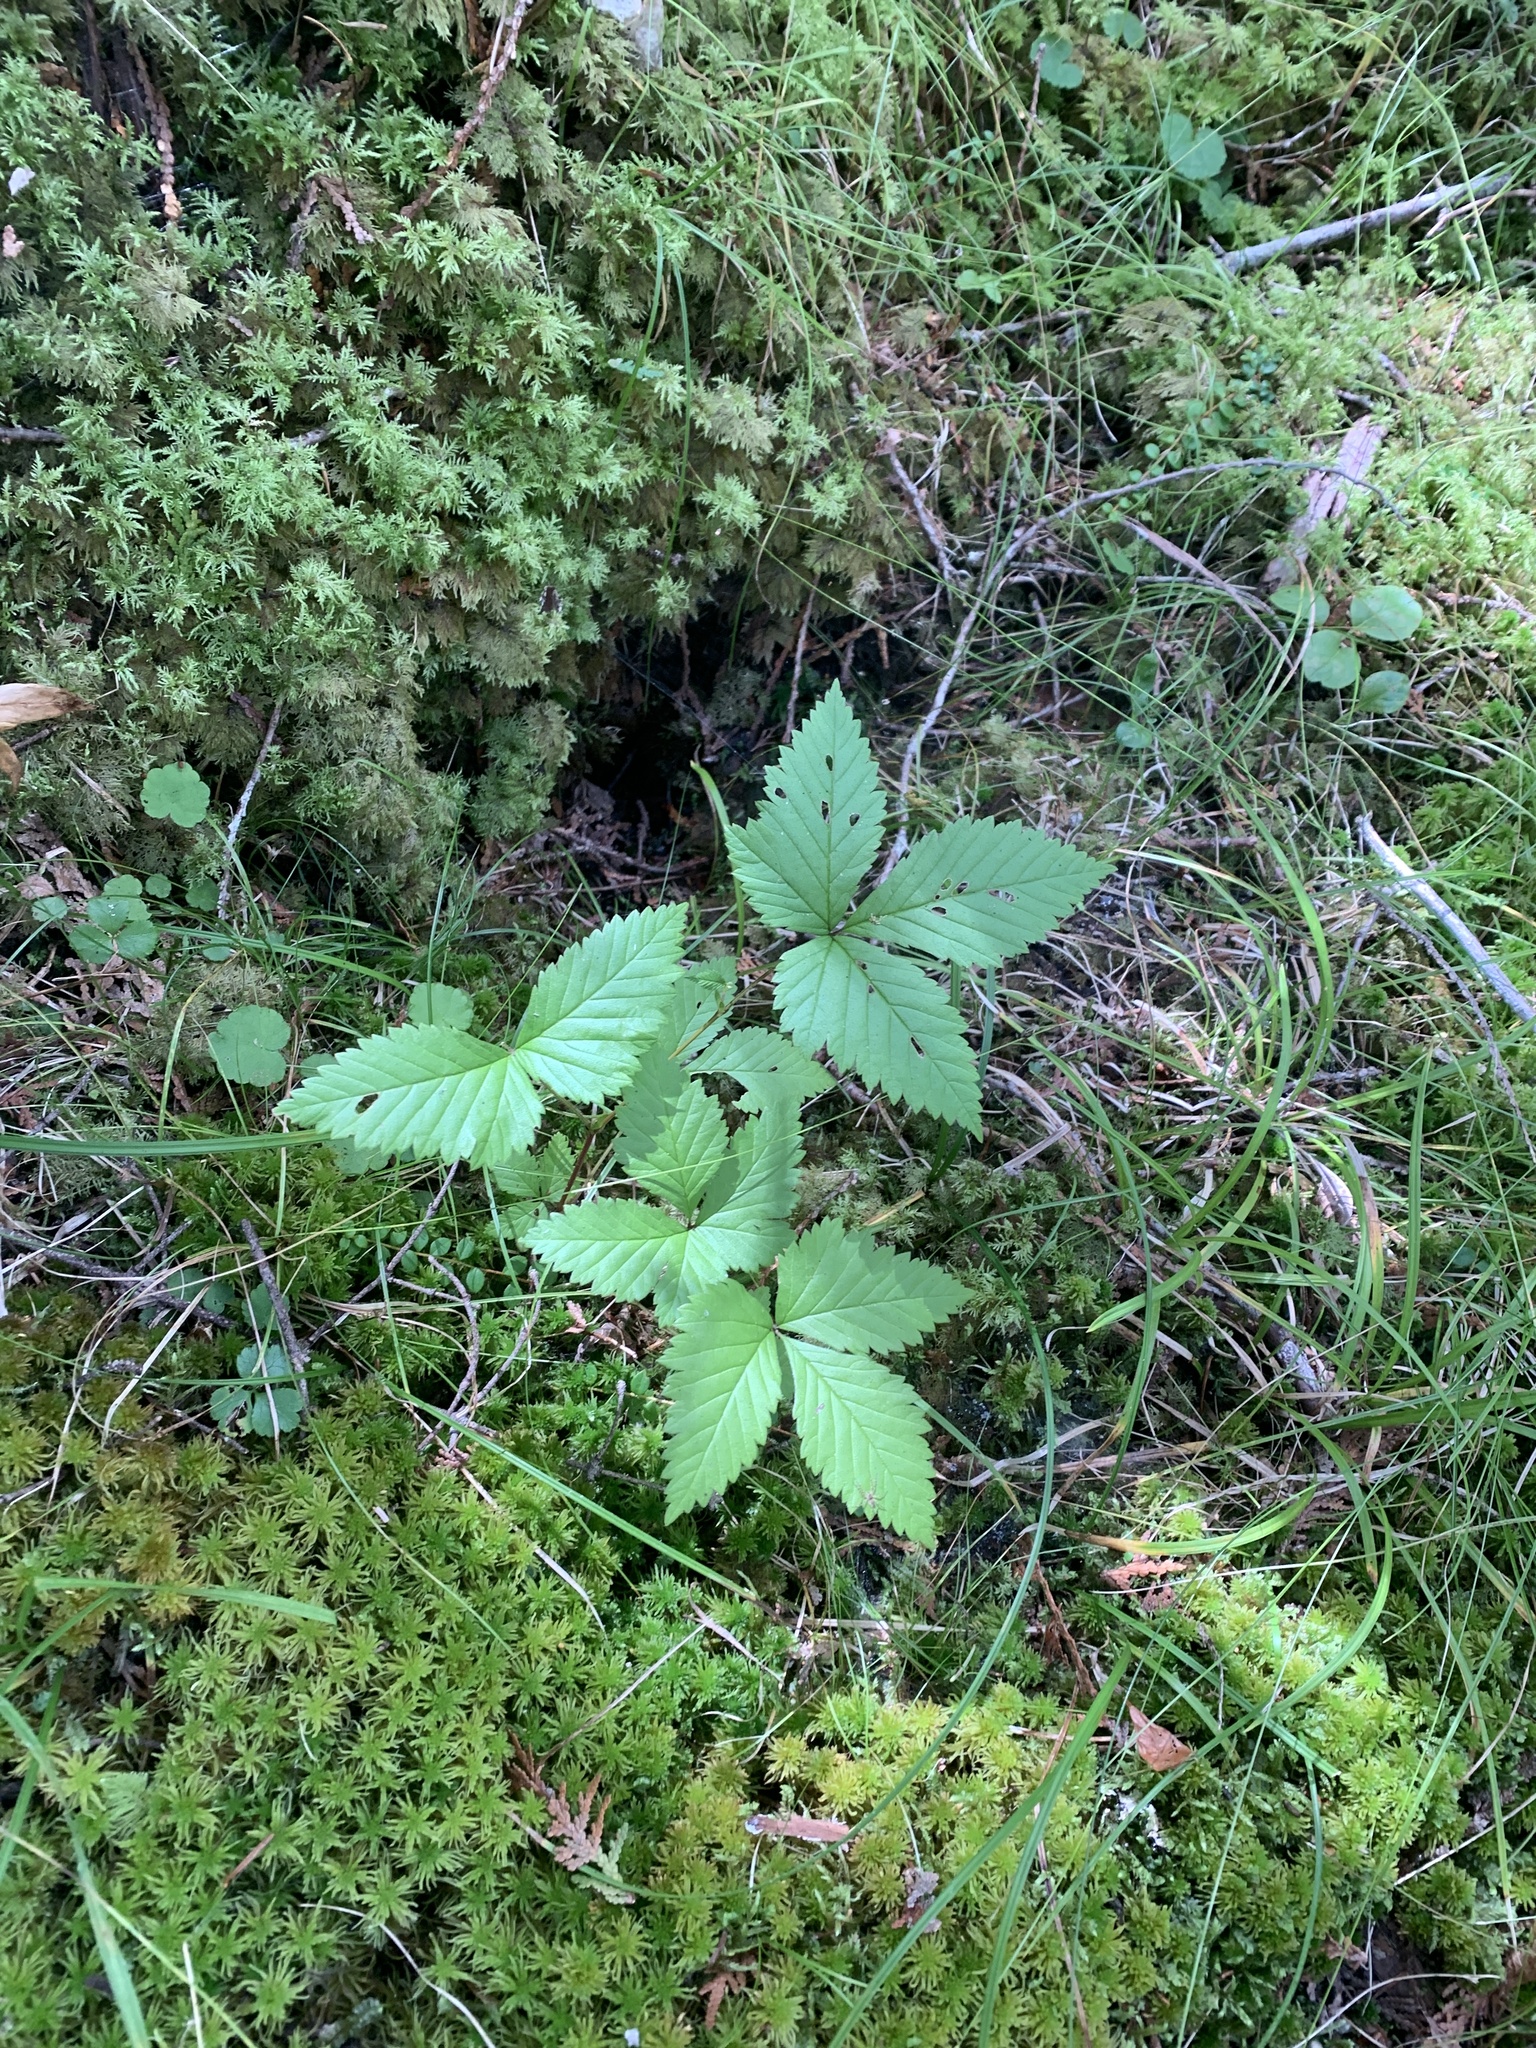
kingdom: Plantae
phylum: Tracheophyta
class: Magnoliopsida
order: Rosales
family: Rosaceae
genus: Rubus
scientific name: Rubus pubescens
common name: Dwarf raspberry
